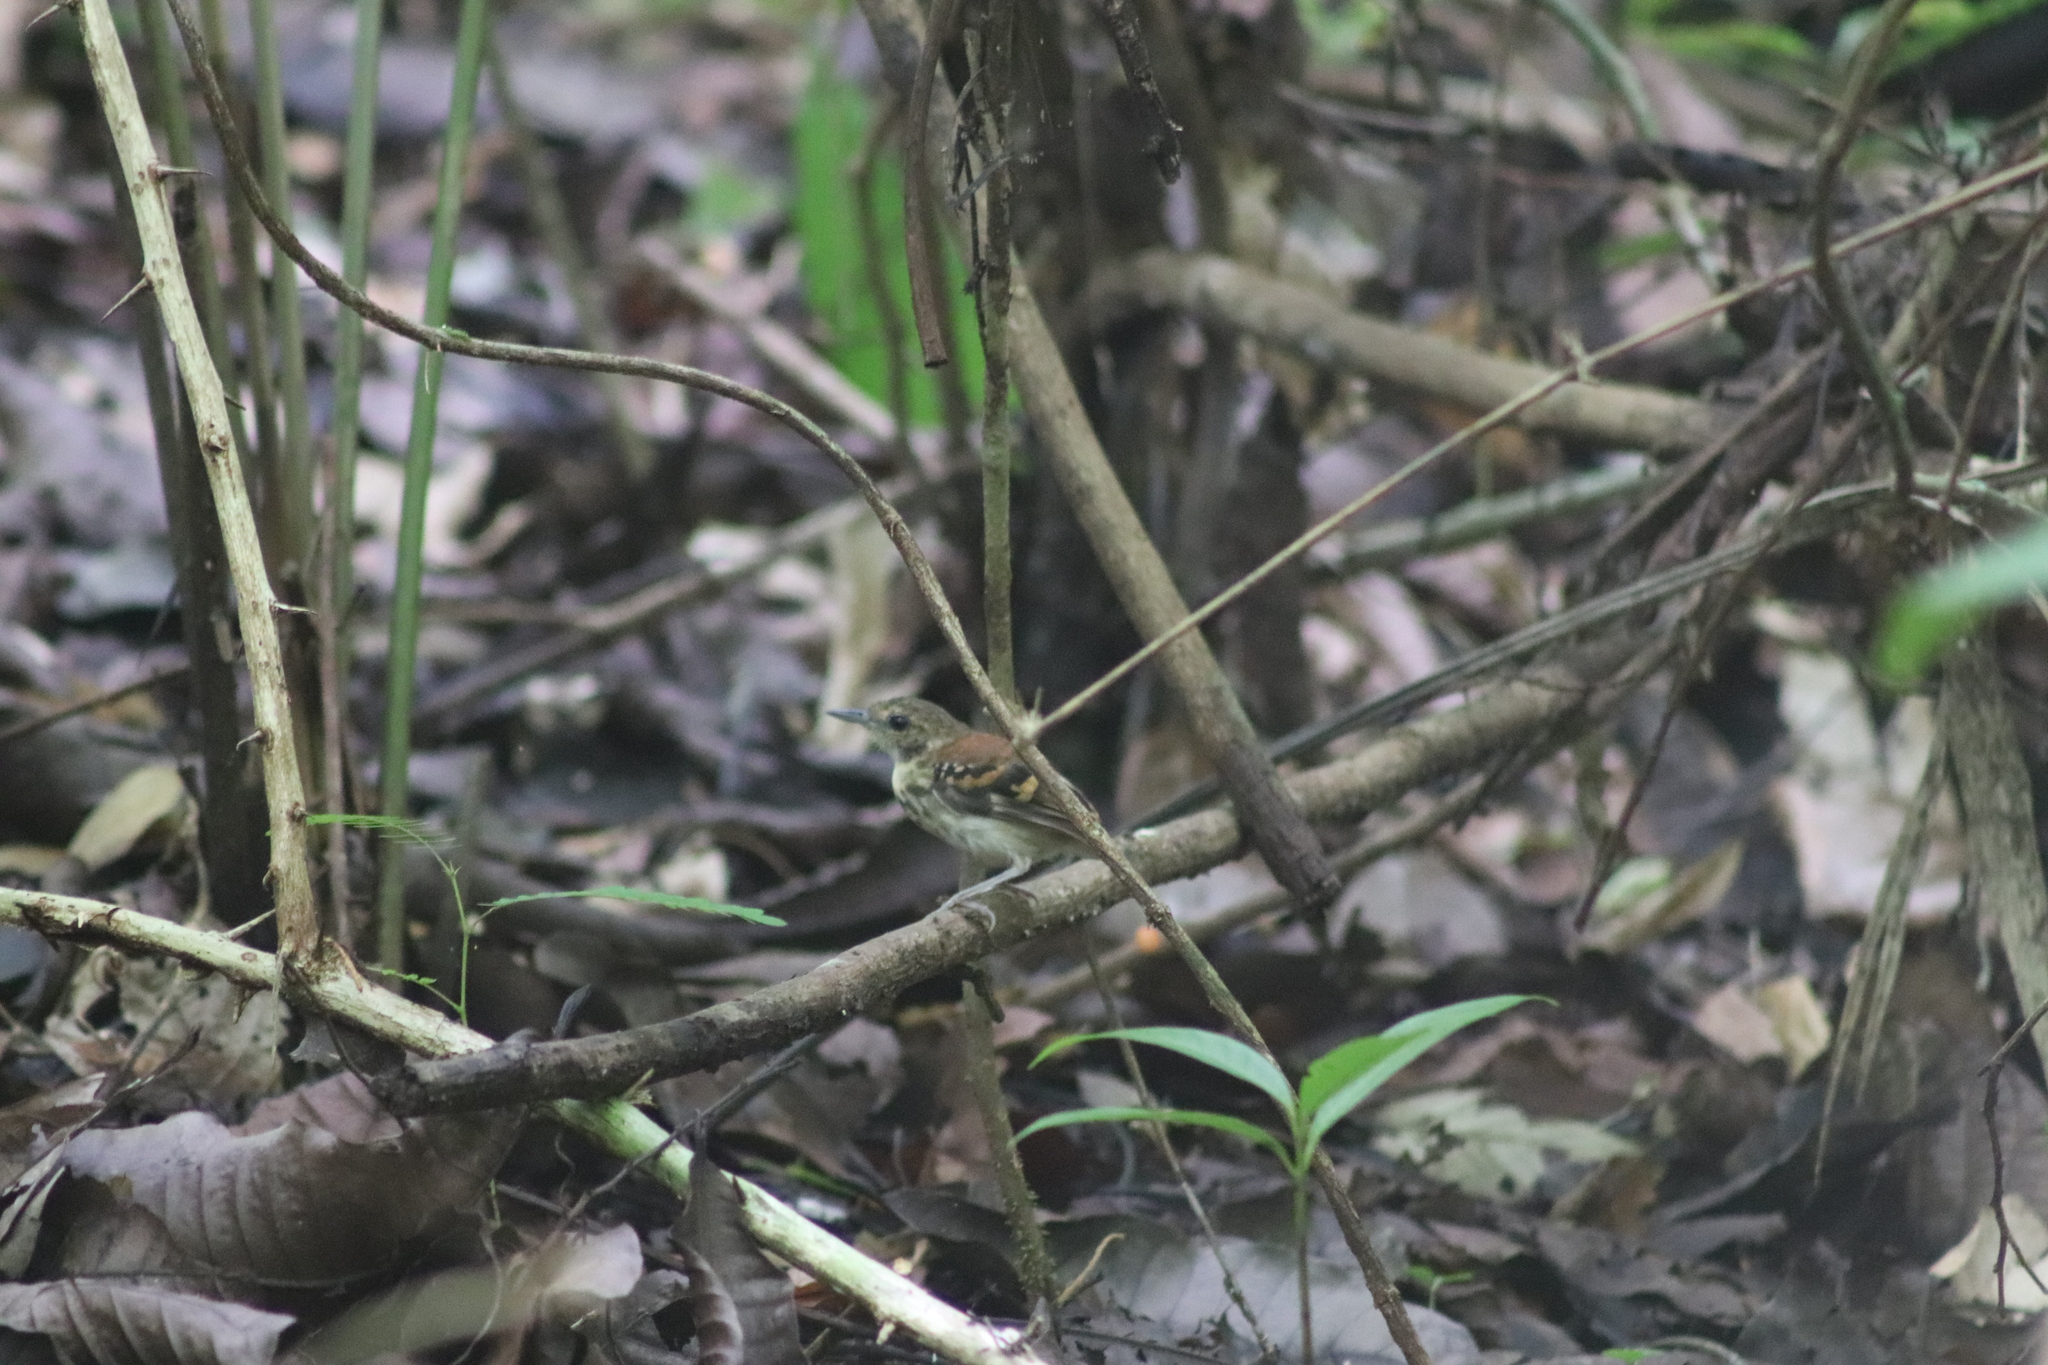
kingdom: Animalia
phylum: Chordata
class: Aves
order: Passeriformes
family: Thamnophilidae
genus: Hylophylax
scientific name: Hylophylax naevioides
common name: Spotted antbird
